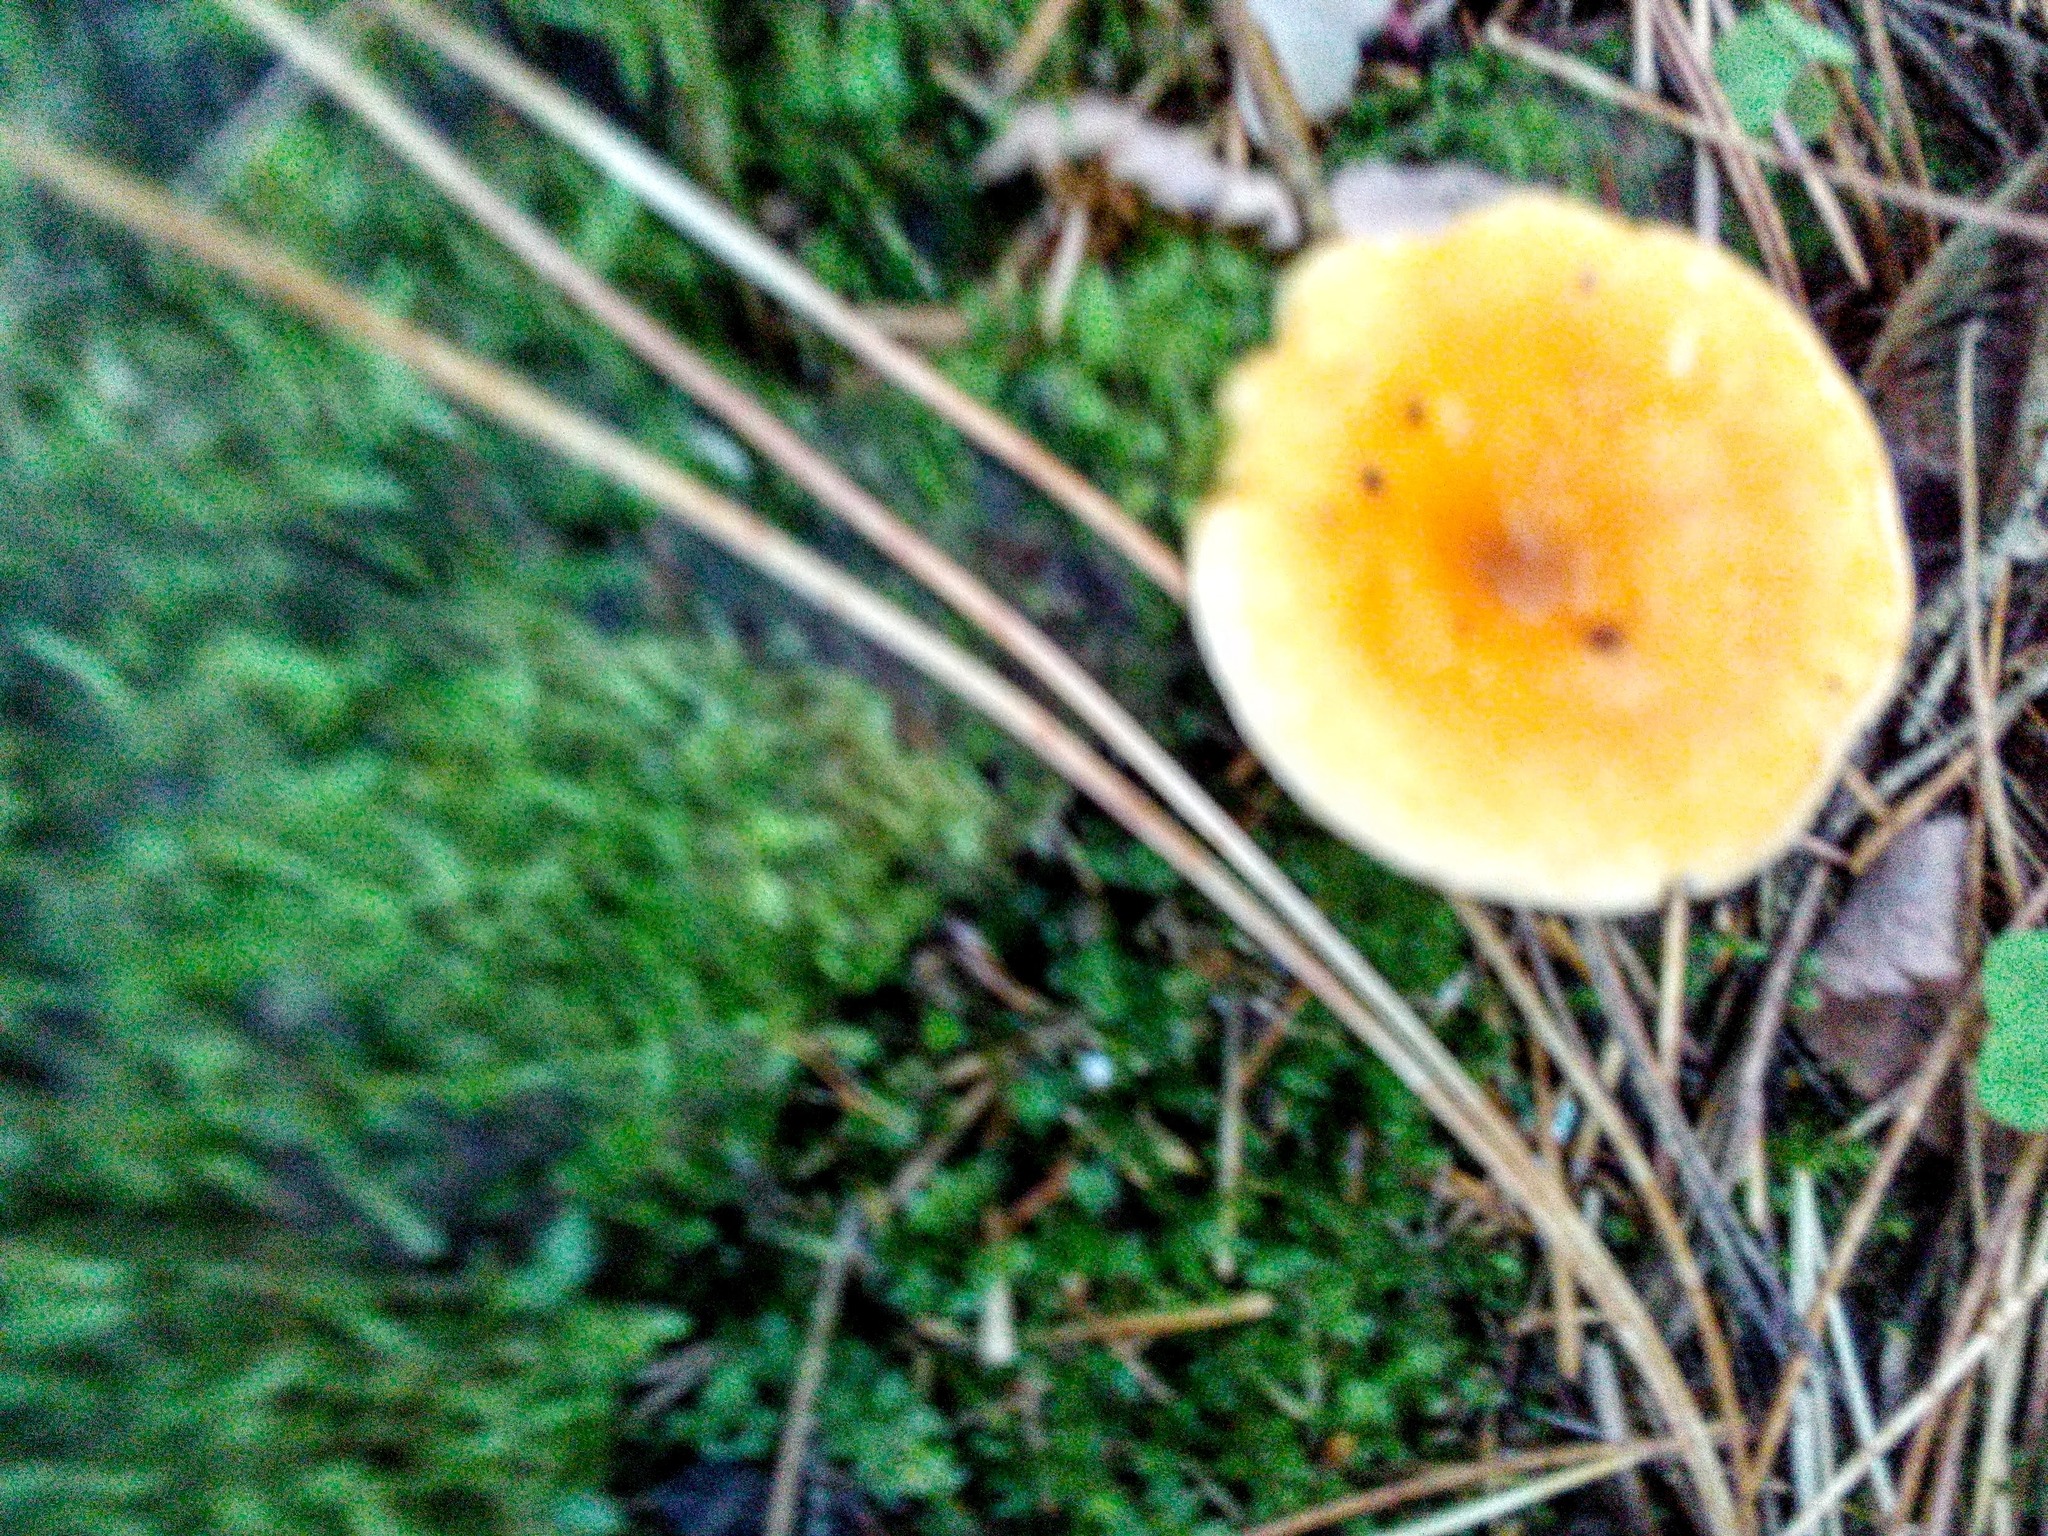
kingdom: Fungi
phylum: Basidiomycota
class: Agaricomycetes
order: Boletales
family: Hygrophoropsidaceae
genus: Hygrophoropsis
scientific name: Hygrophoropsis aurantiaca
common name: False chanterelle
